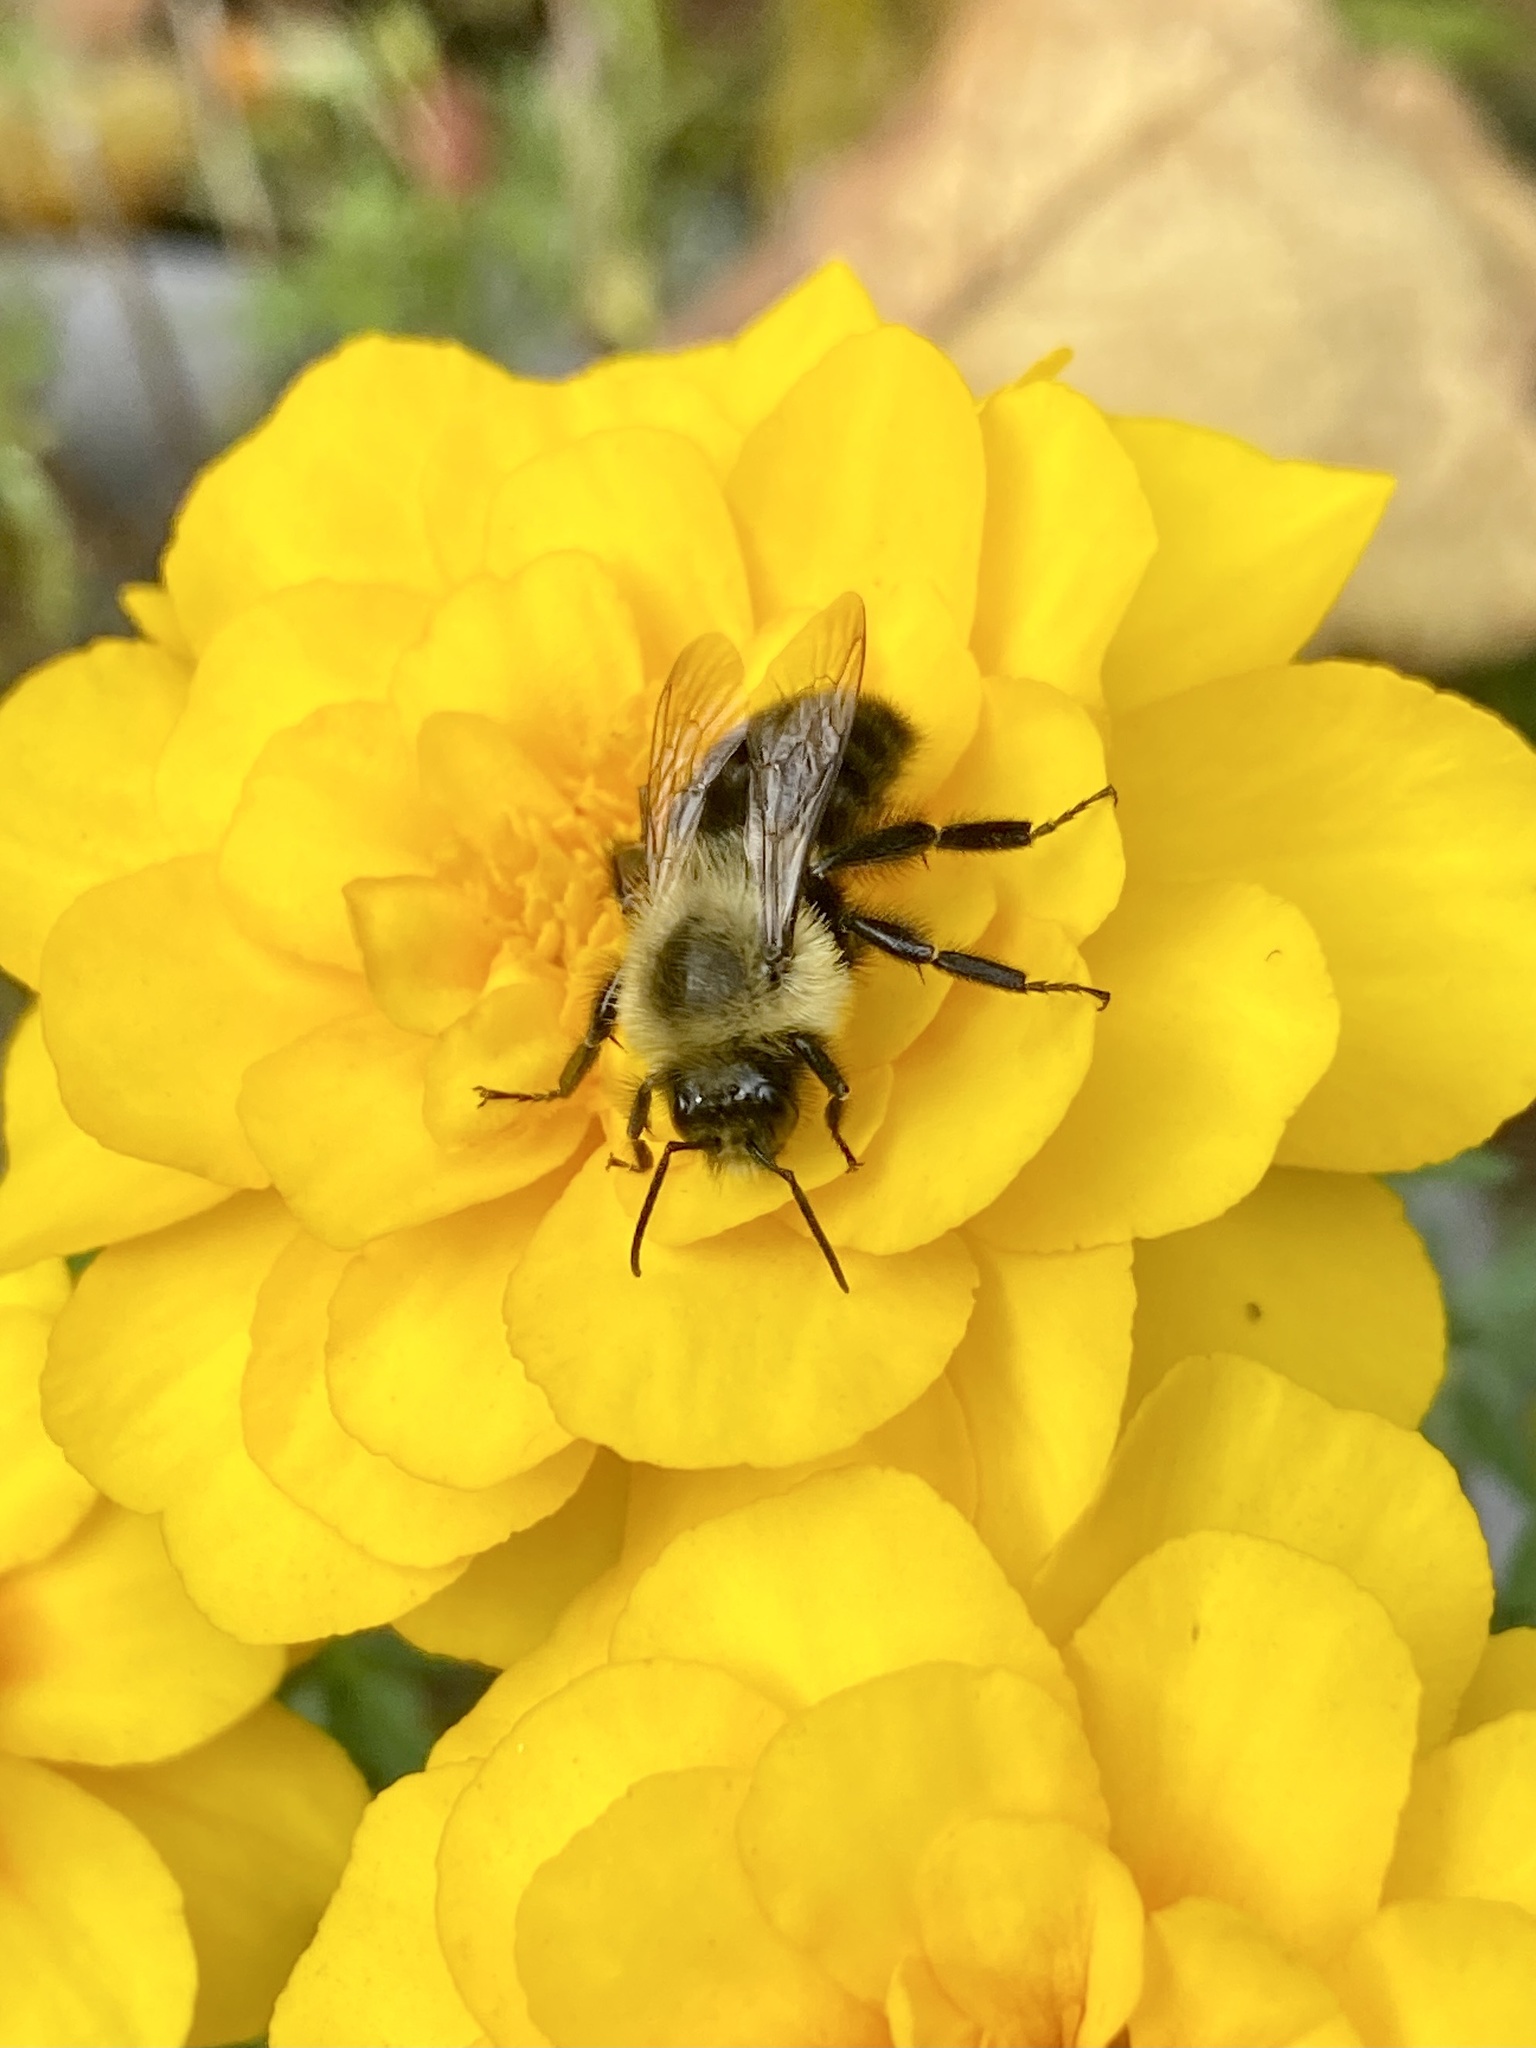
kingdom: Animalia
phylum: Arthropoda
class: Insecta
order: Hymenoptera
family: Apidae
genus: Bombus
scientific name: Bombus impatiens
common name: Common eastern bumble bee
